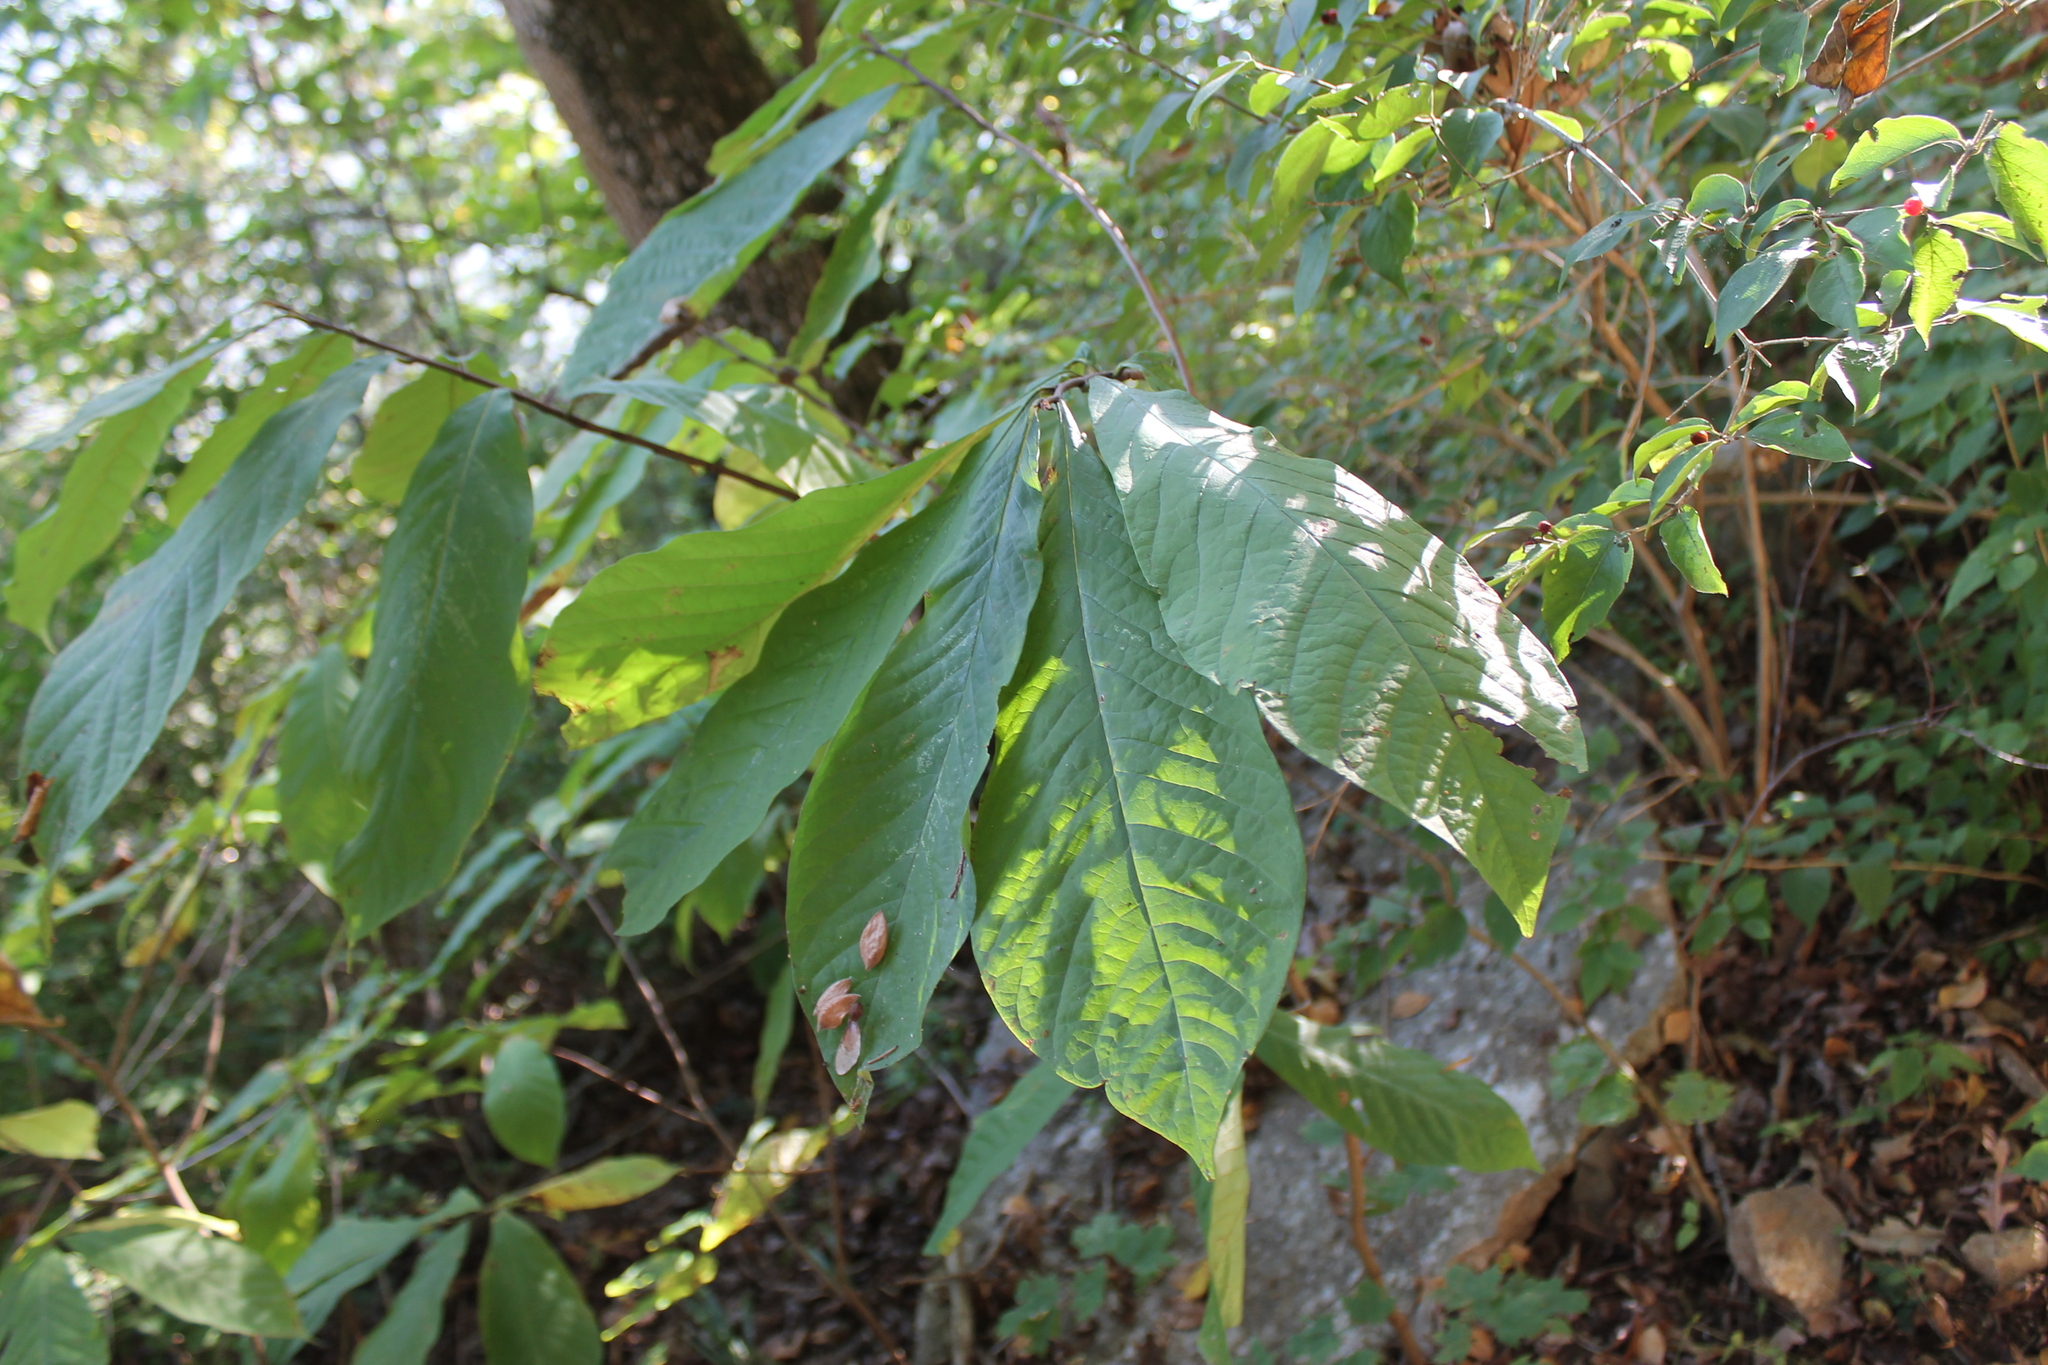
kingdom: Plantae
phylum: Tracheophyta
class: Magnoliopsida
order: Magnoliales
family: Annonaceae
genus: Asimina
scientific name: Asimina triloba
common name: Dog-banana
